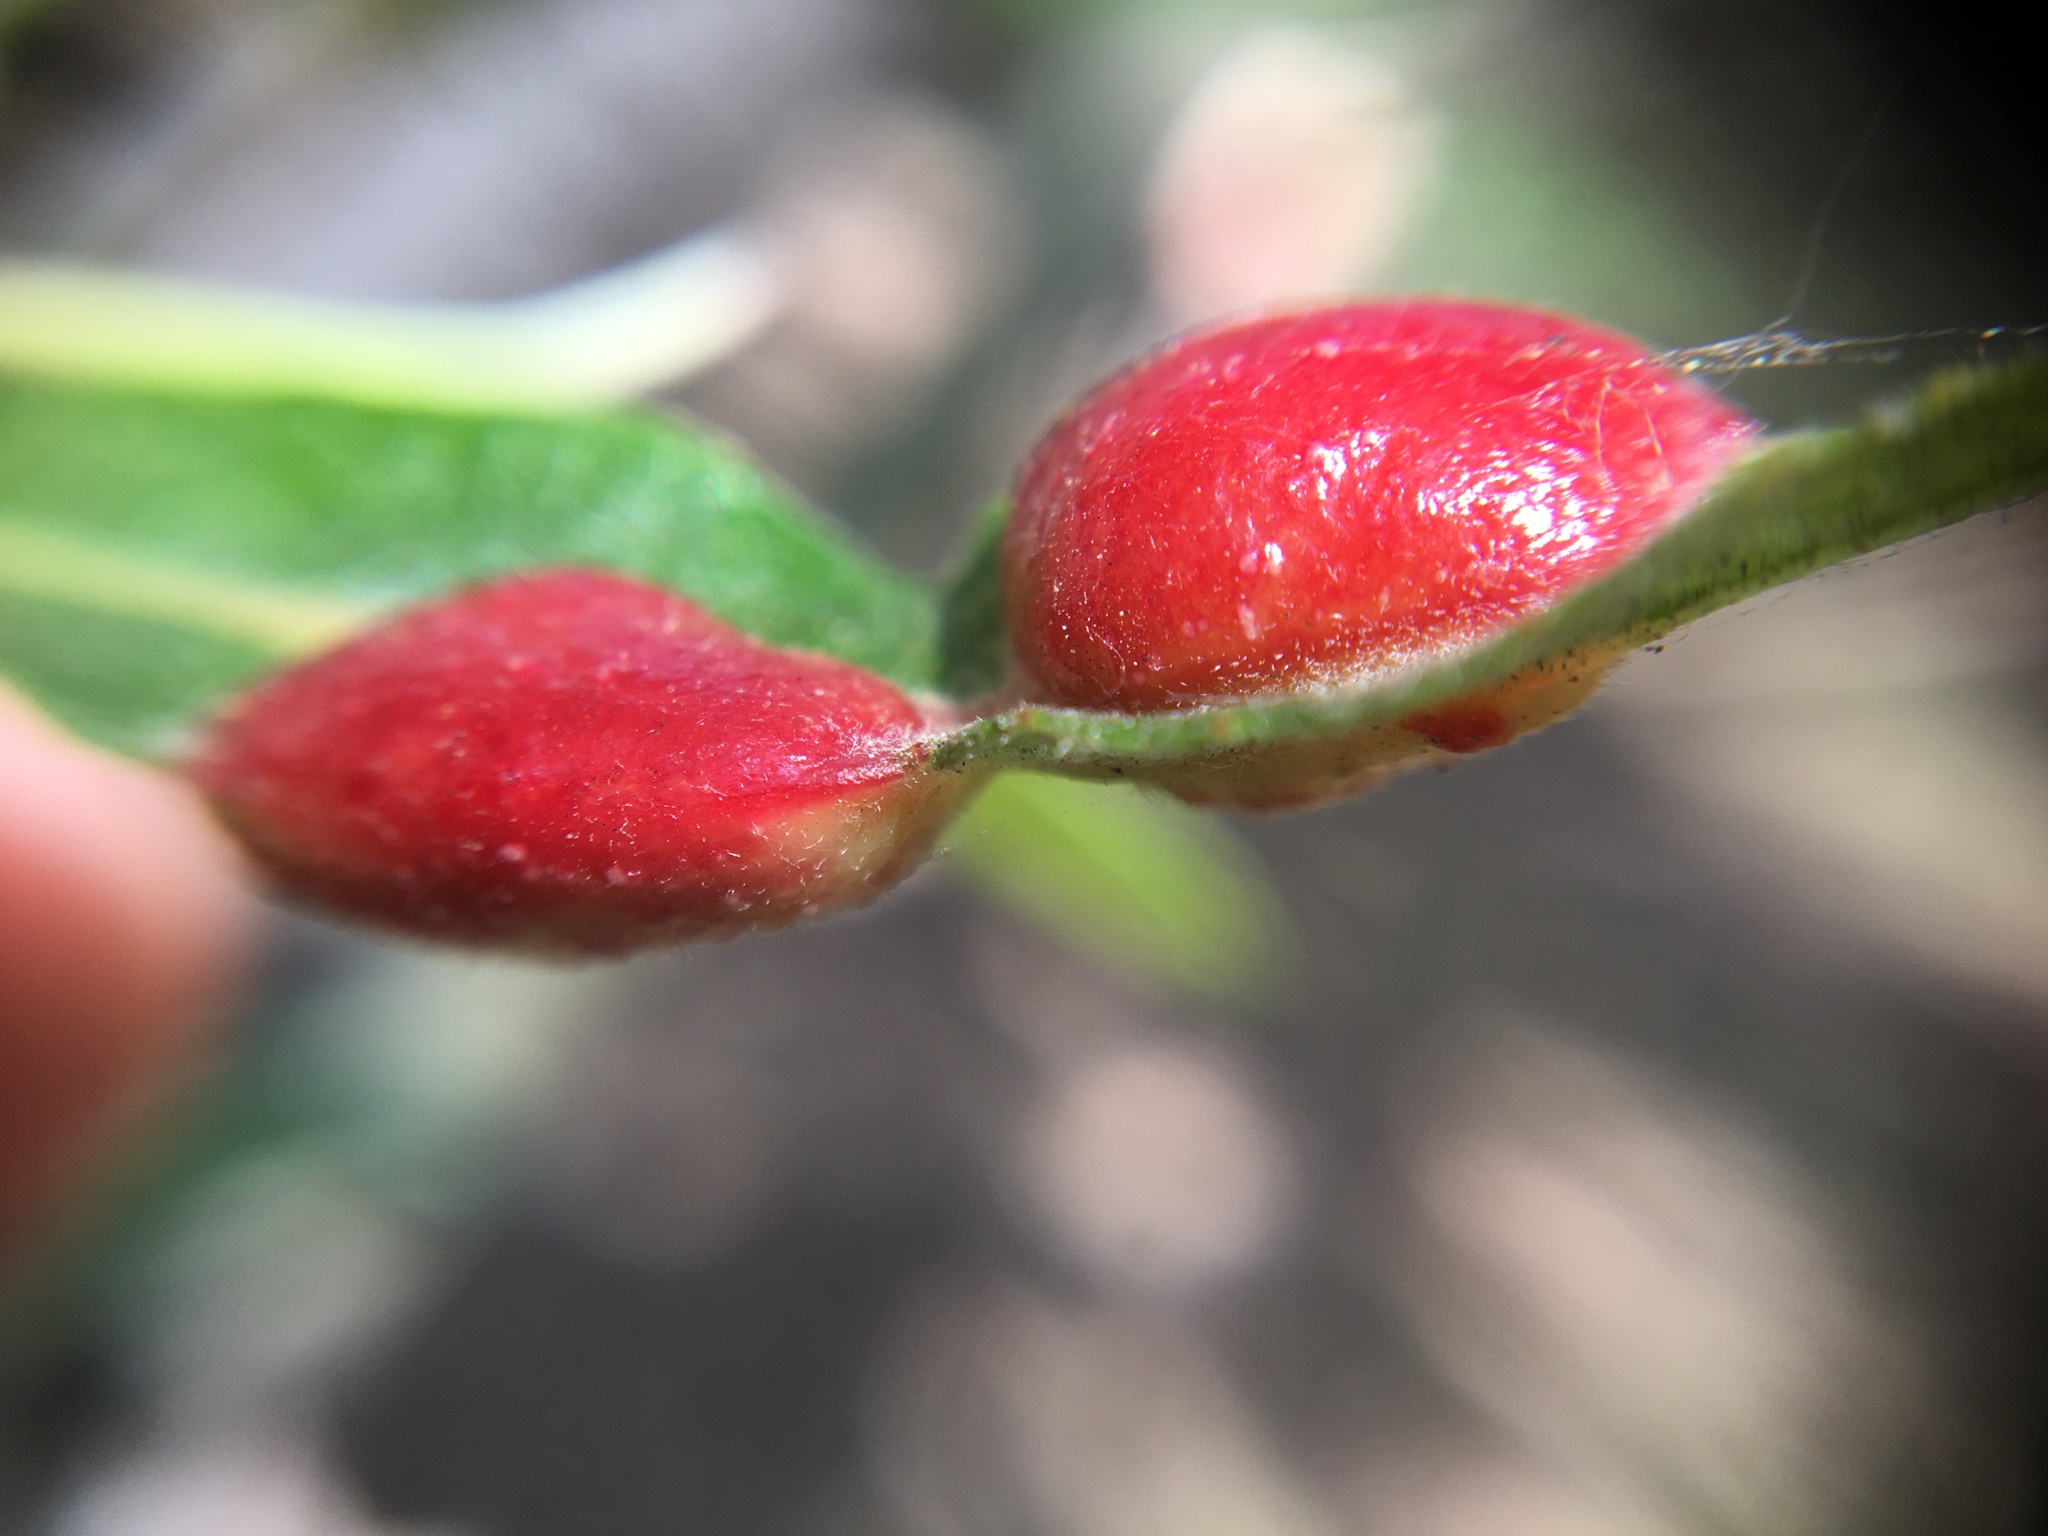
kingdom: Animalia
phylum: Arthropoda
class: Insecta
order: Hymenoptera
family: Tenthredinidae
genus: Euura
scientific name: Euura
